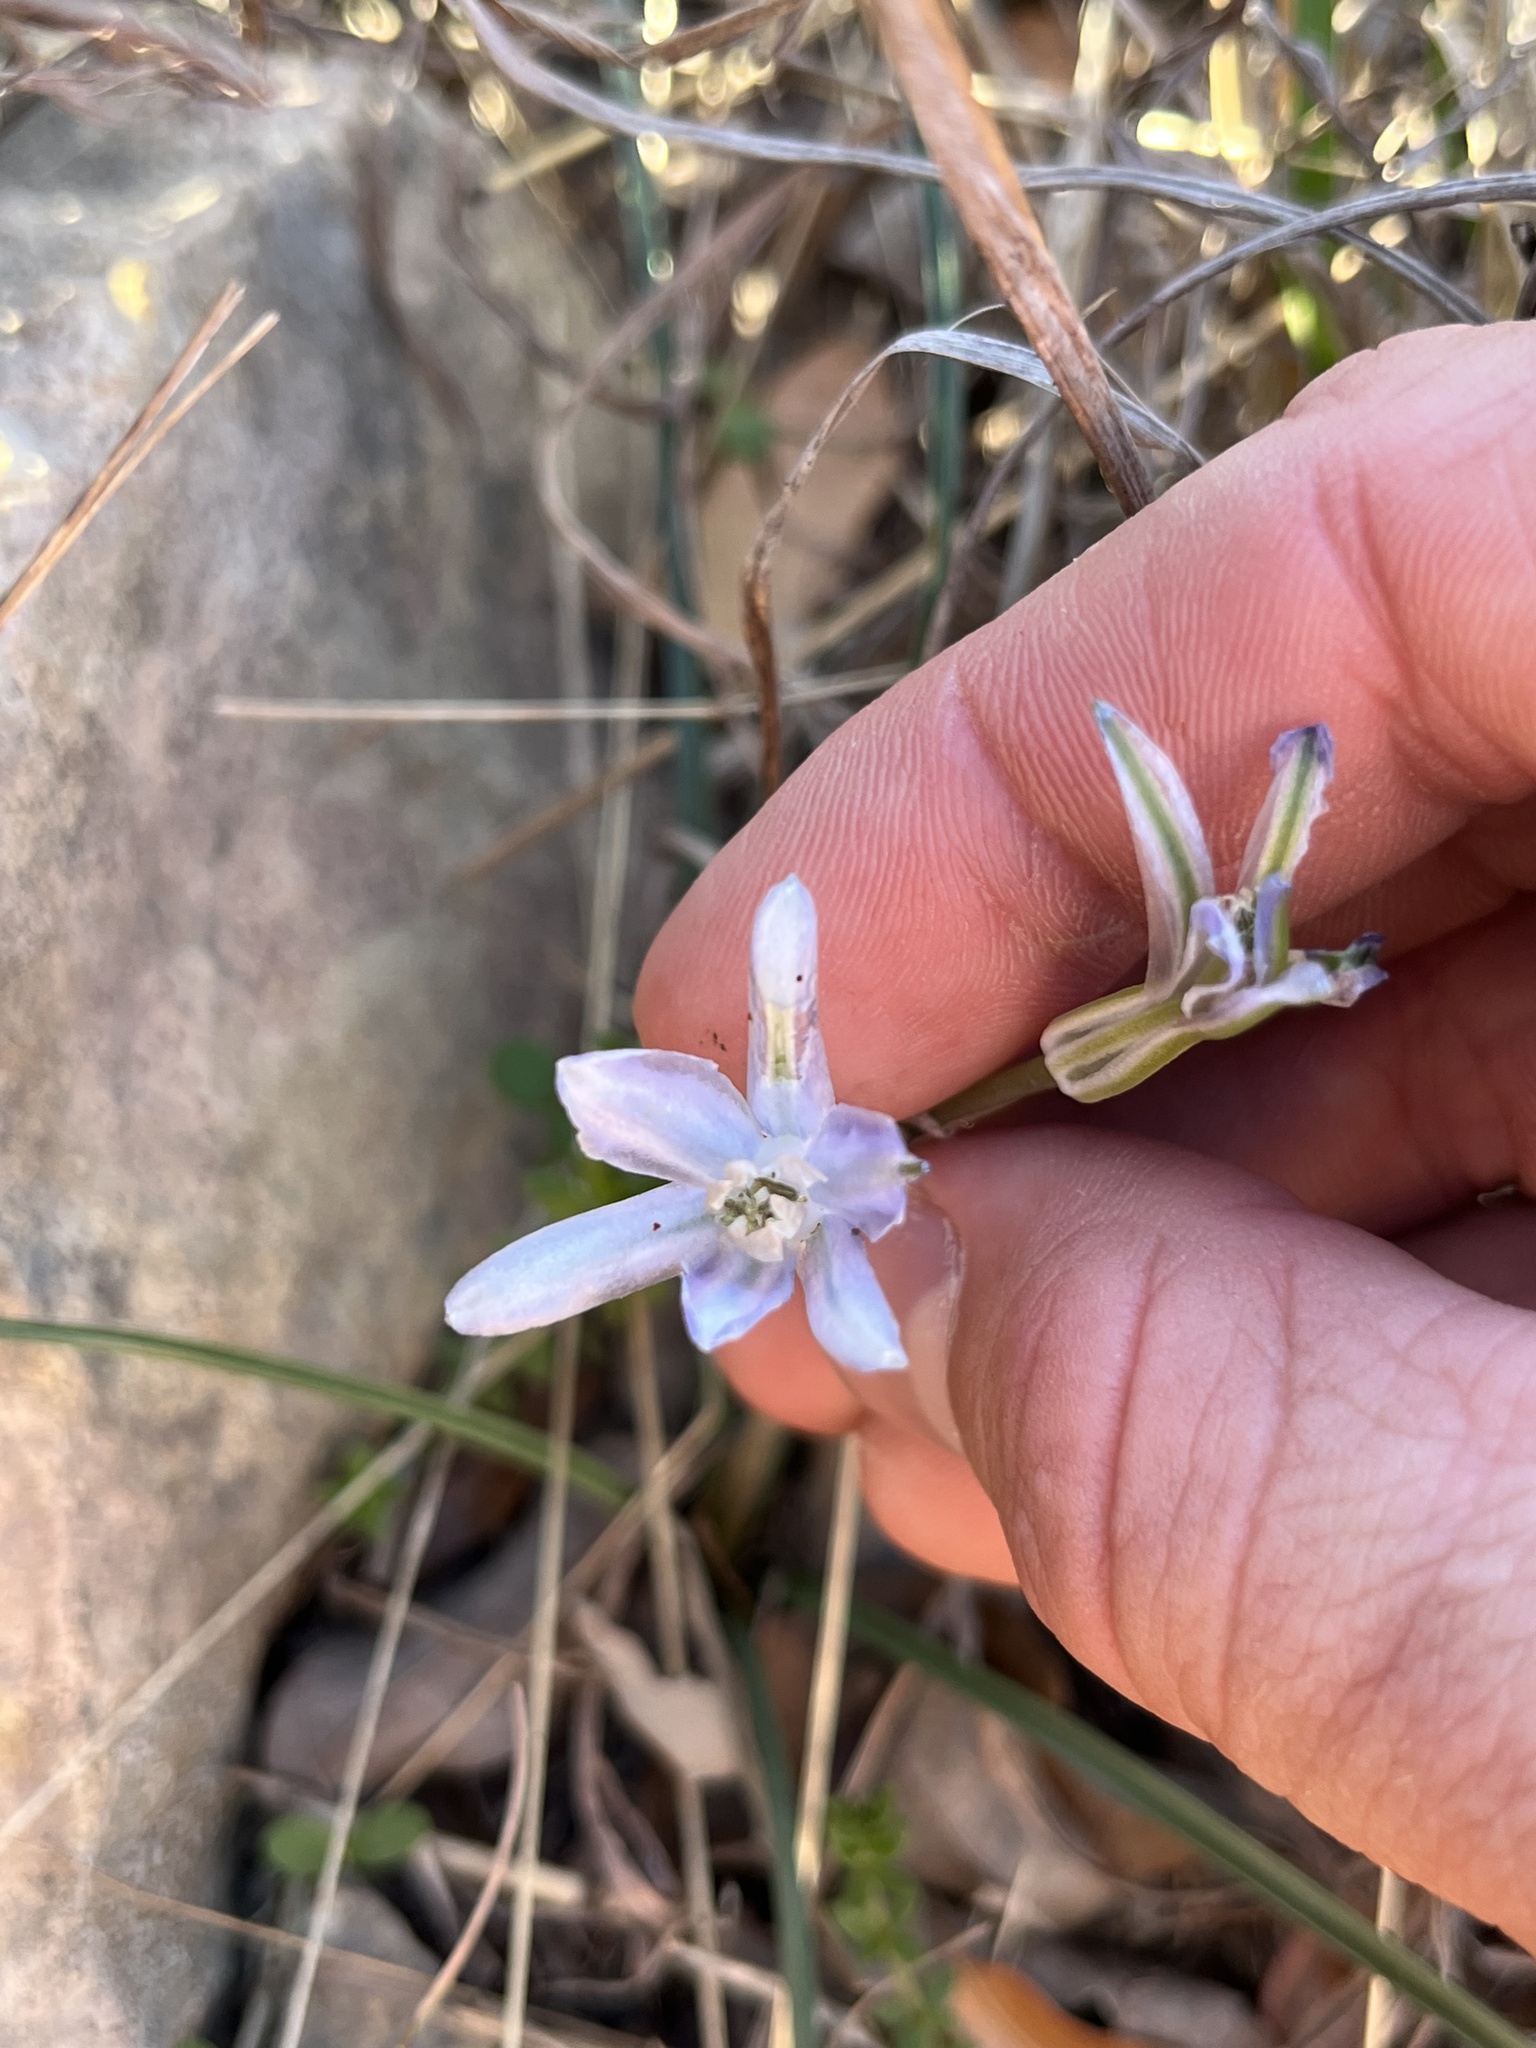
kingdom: Plantae
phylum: Tracheophyta
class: Liliopsida
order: Asparagales
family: Asparagaceae
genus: Androstephium
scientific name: Androstephium coeruleum
